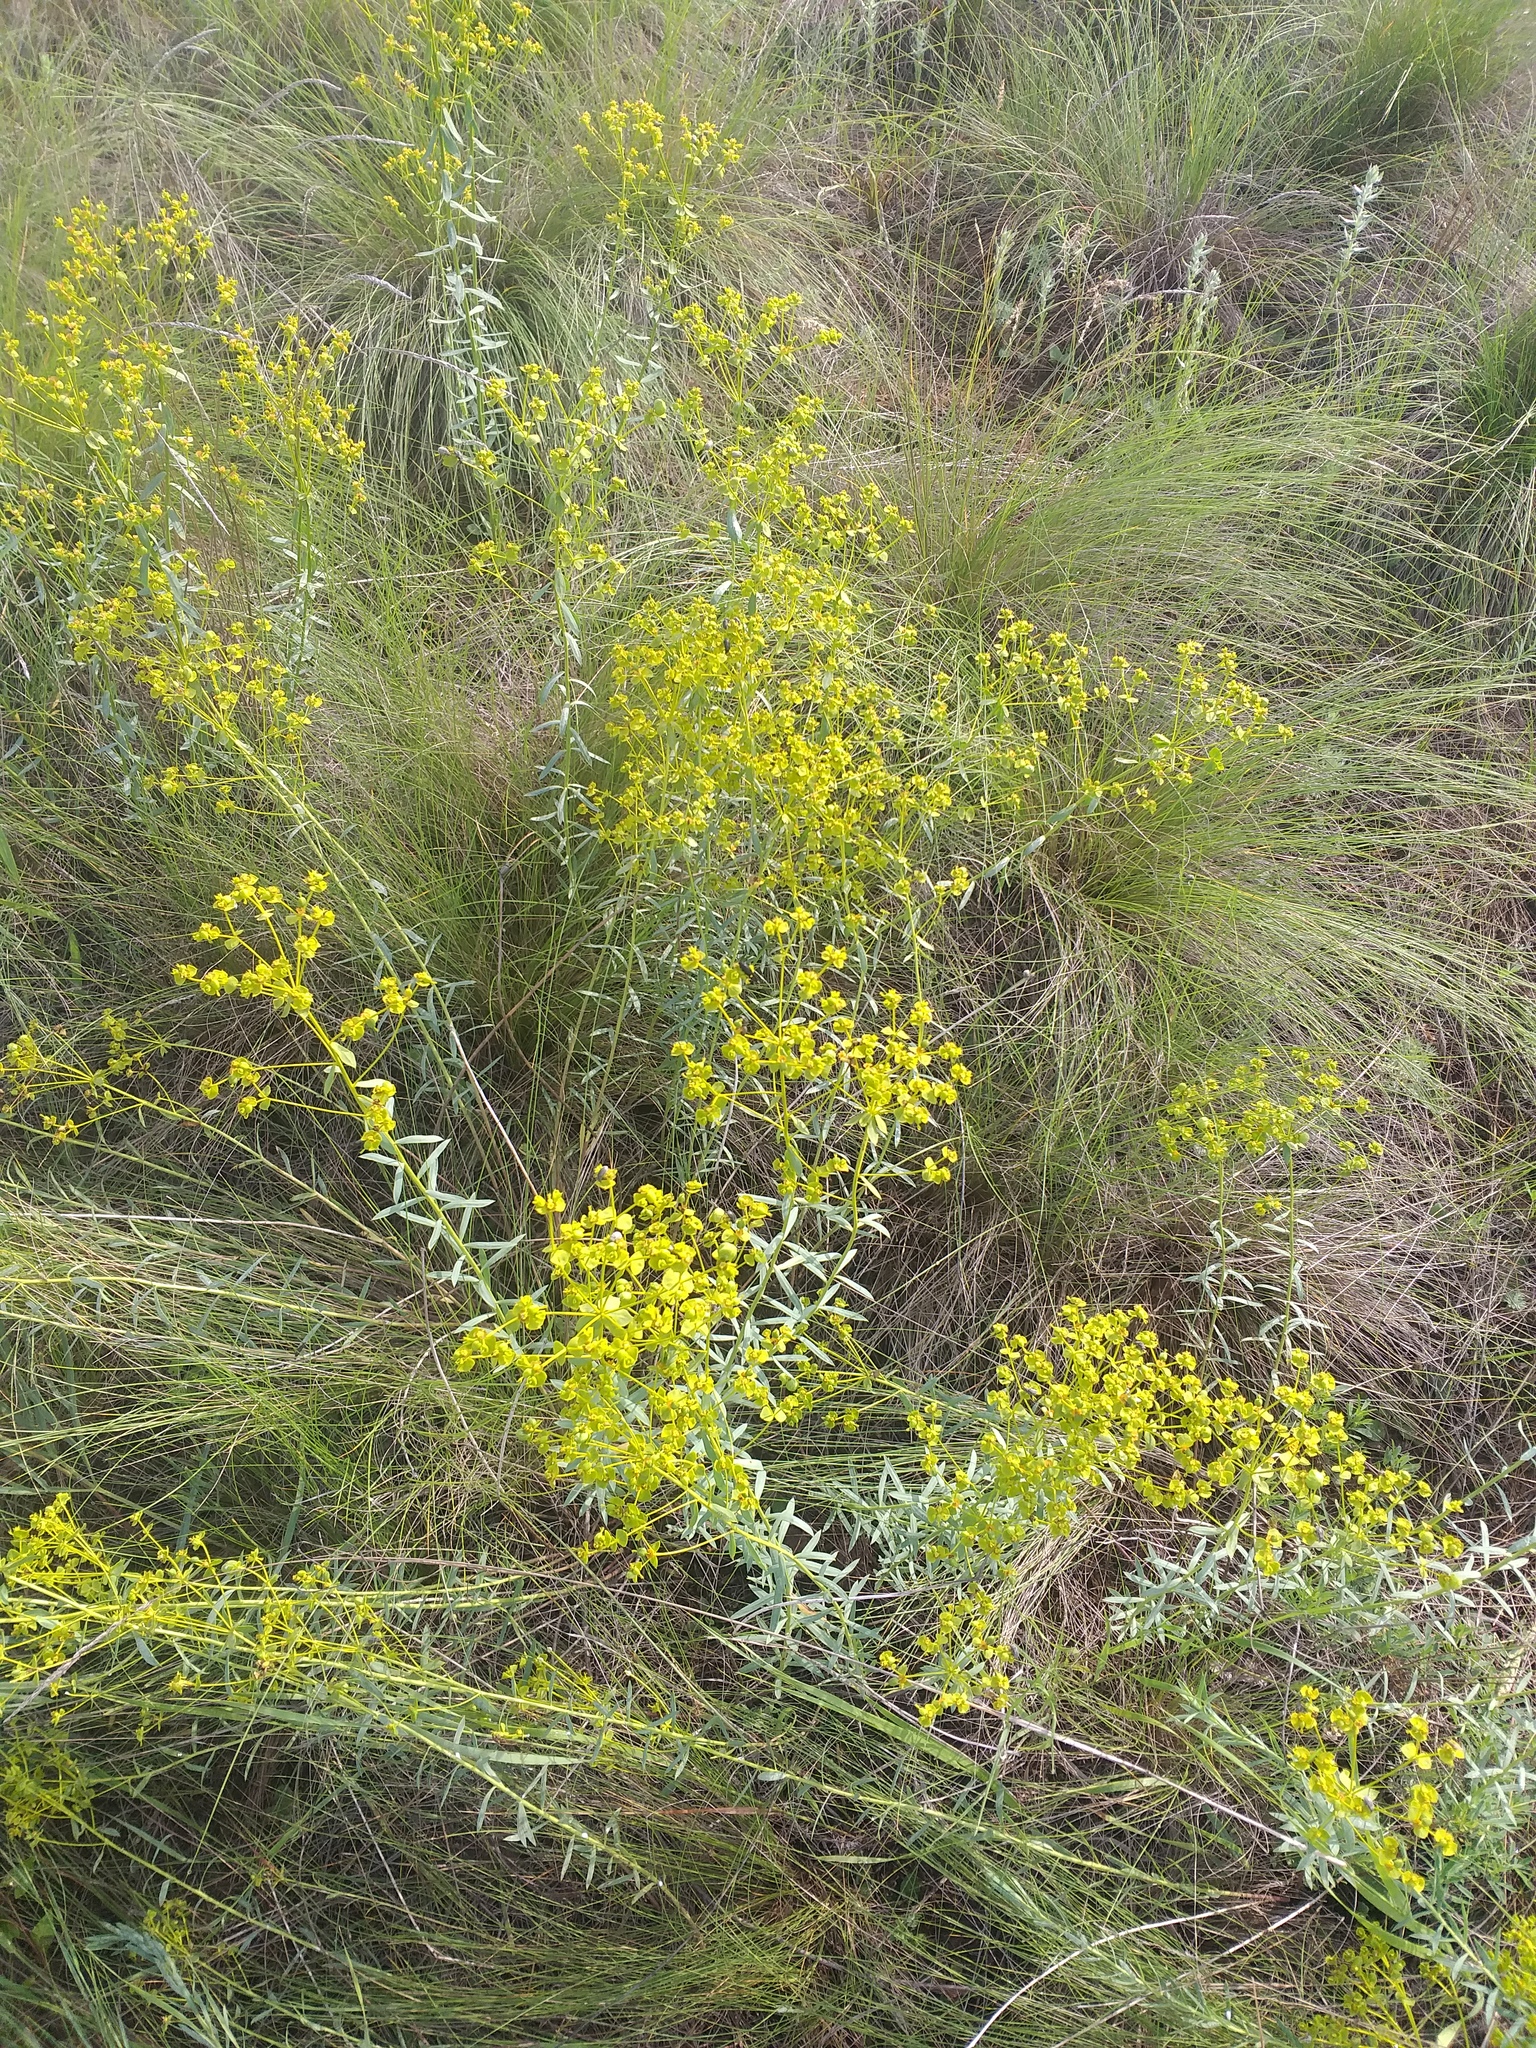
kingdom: Plantae
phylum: Tracheophyta
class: Magnoliopsida
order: Malpighiales
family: Euphorbiaceae
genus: Euphorbia
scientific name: Euphorbia seguieriana
